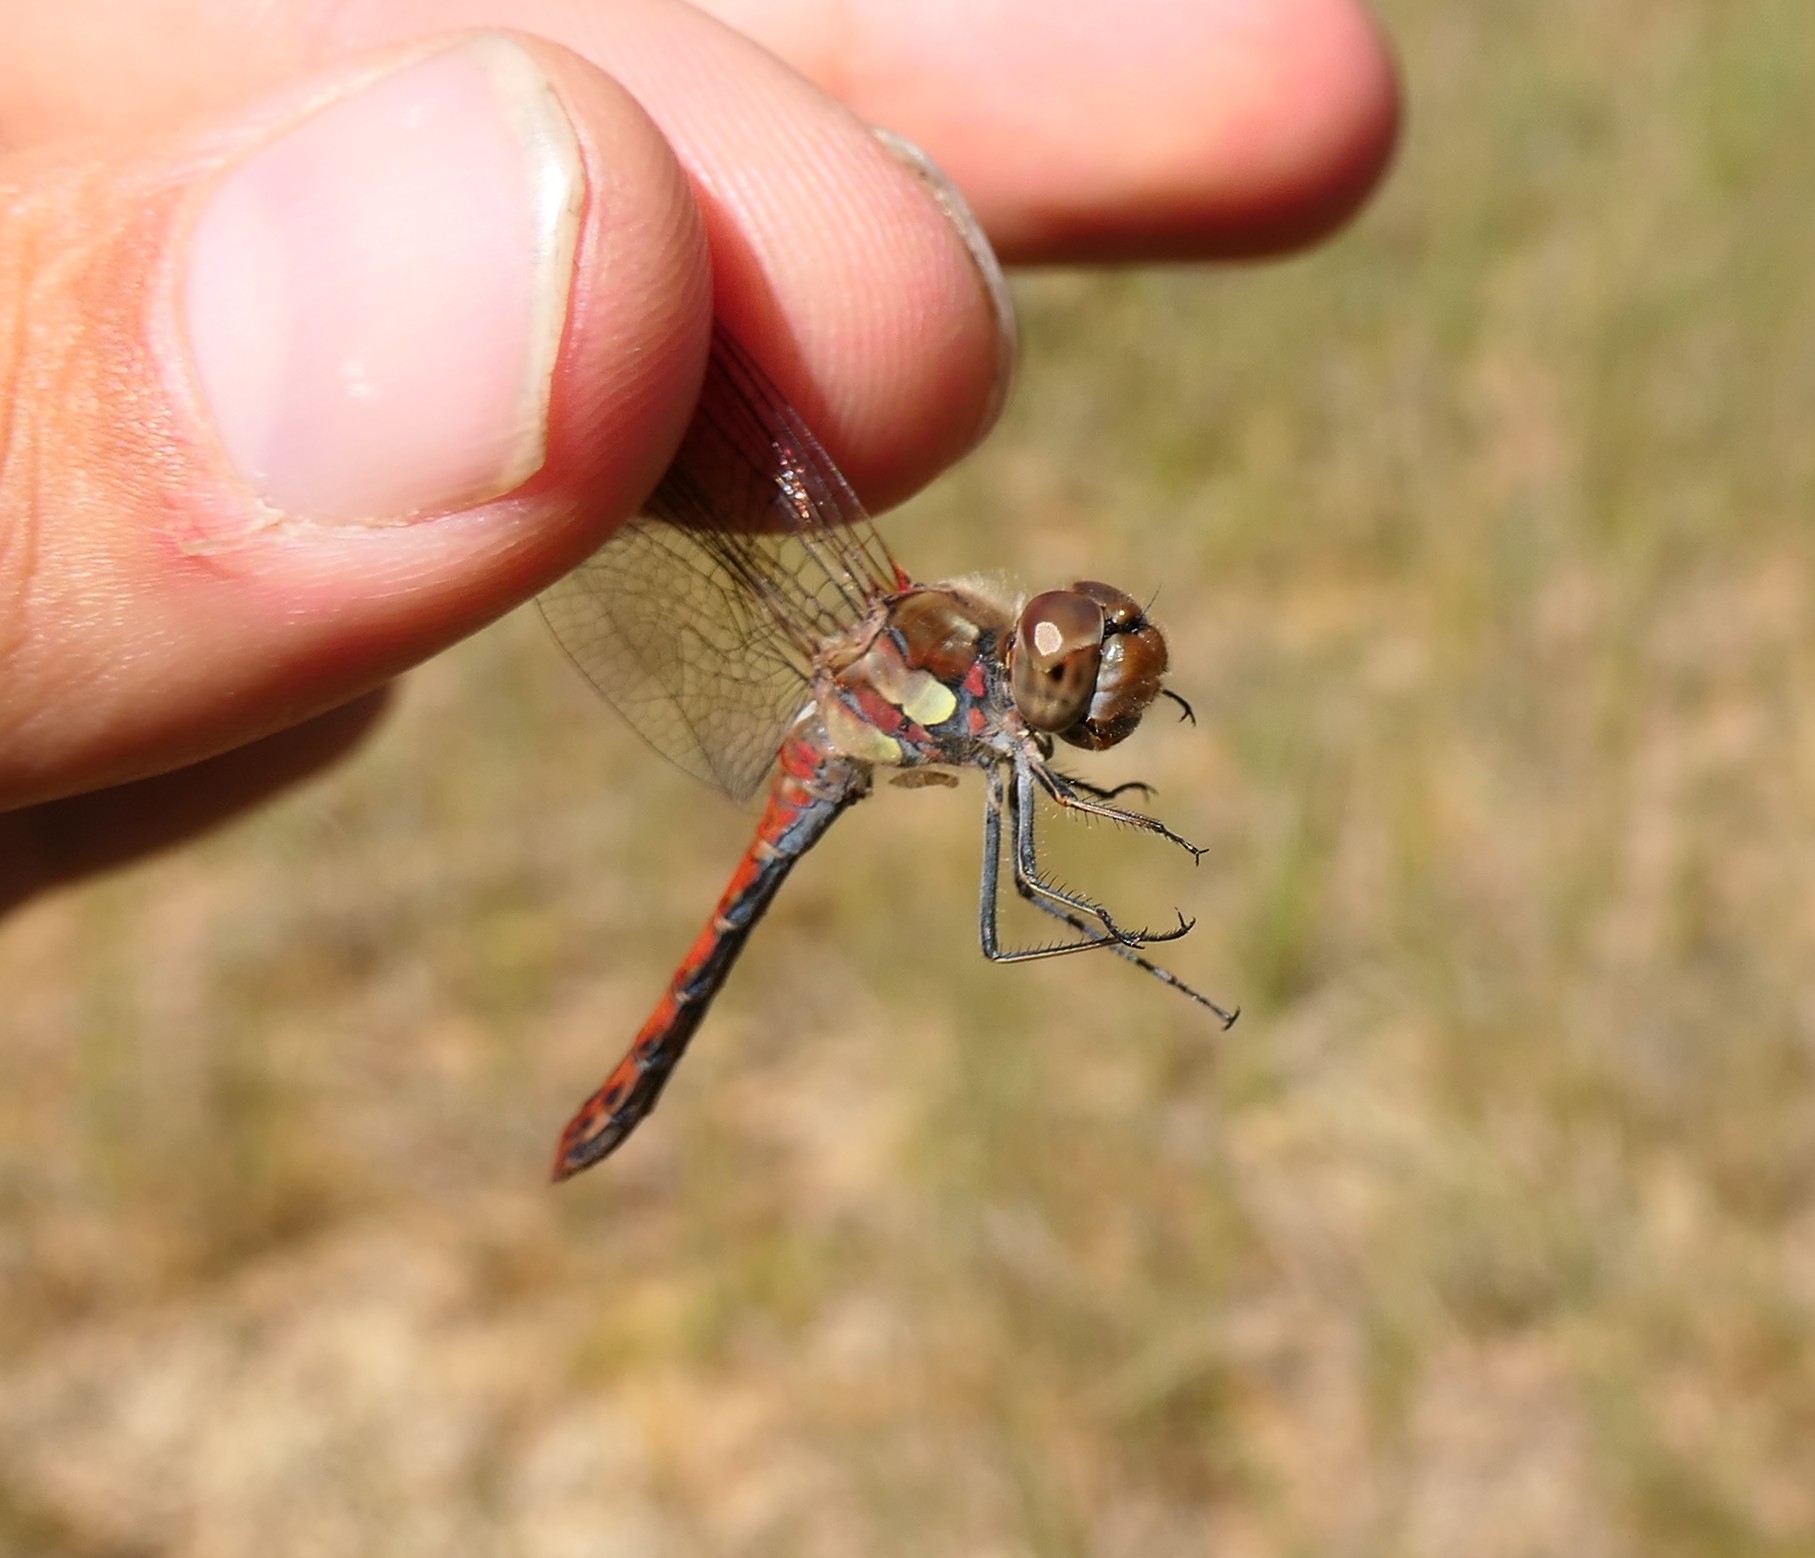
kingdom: Animalia
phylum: Arthropoda
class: Insecta
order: Odonata
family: Libellulidae
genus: Sympetrum
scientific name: Sympetrum striolatum
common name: Common darter
